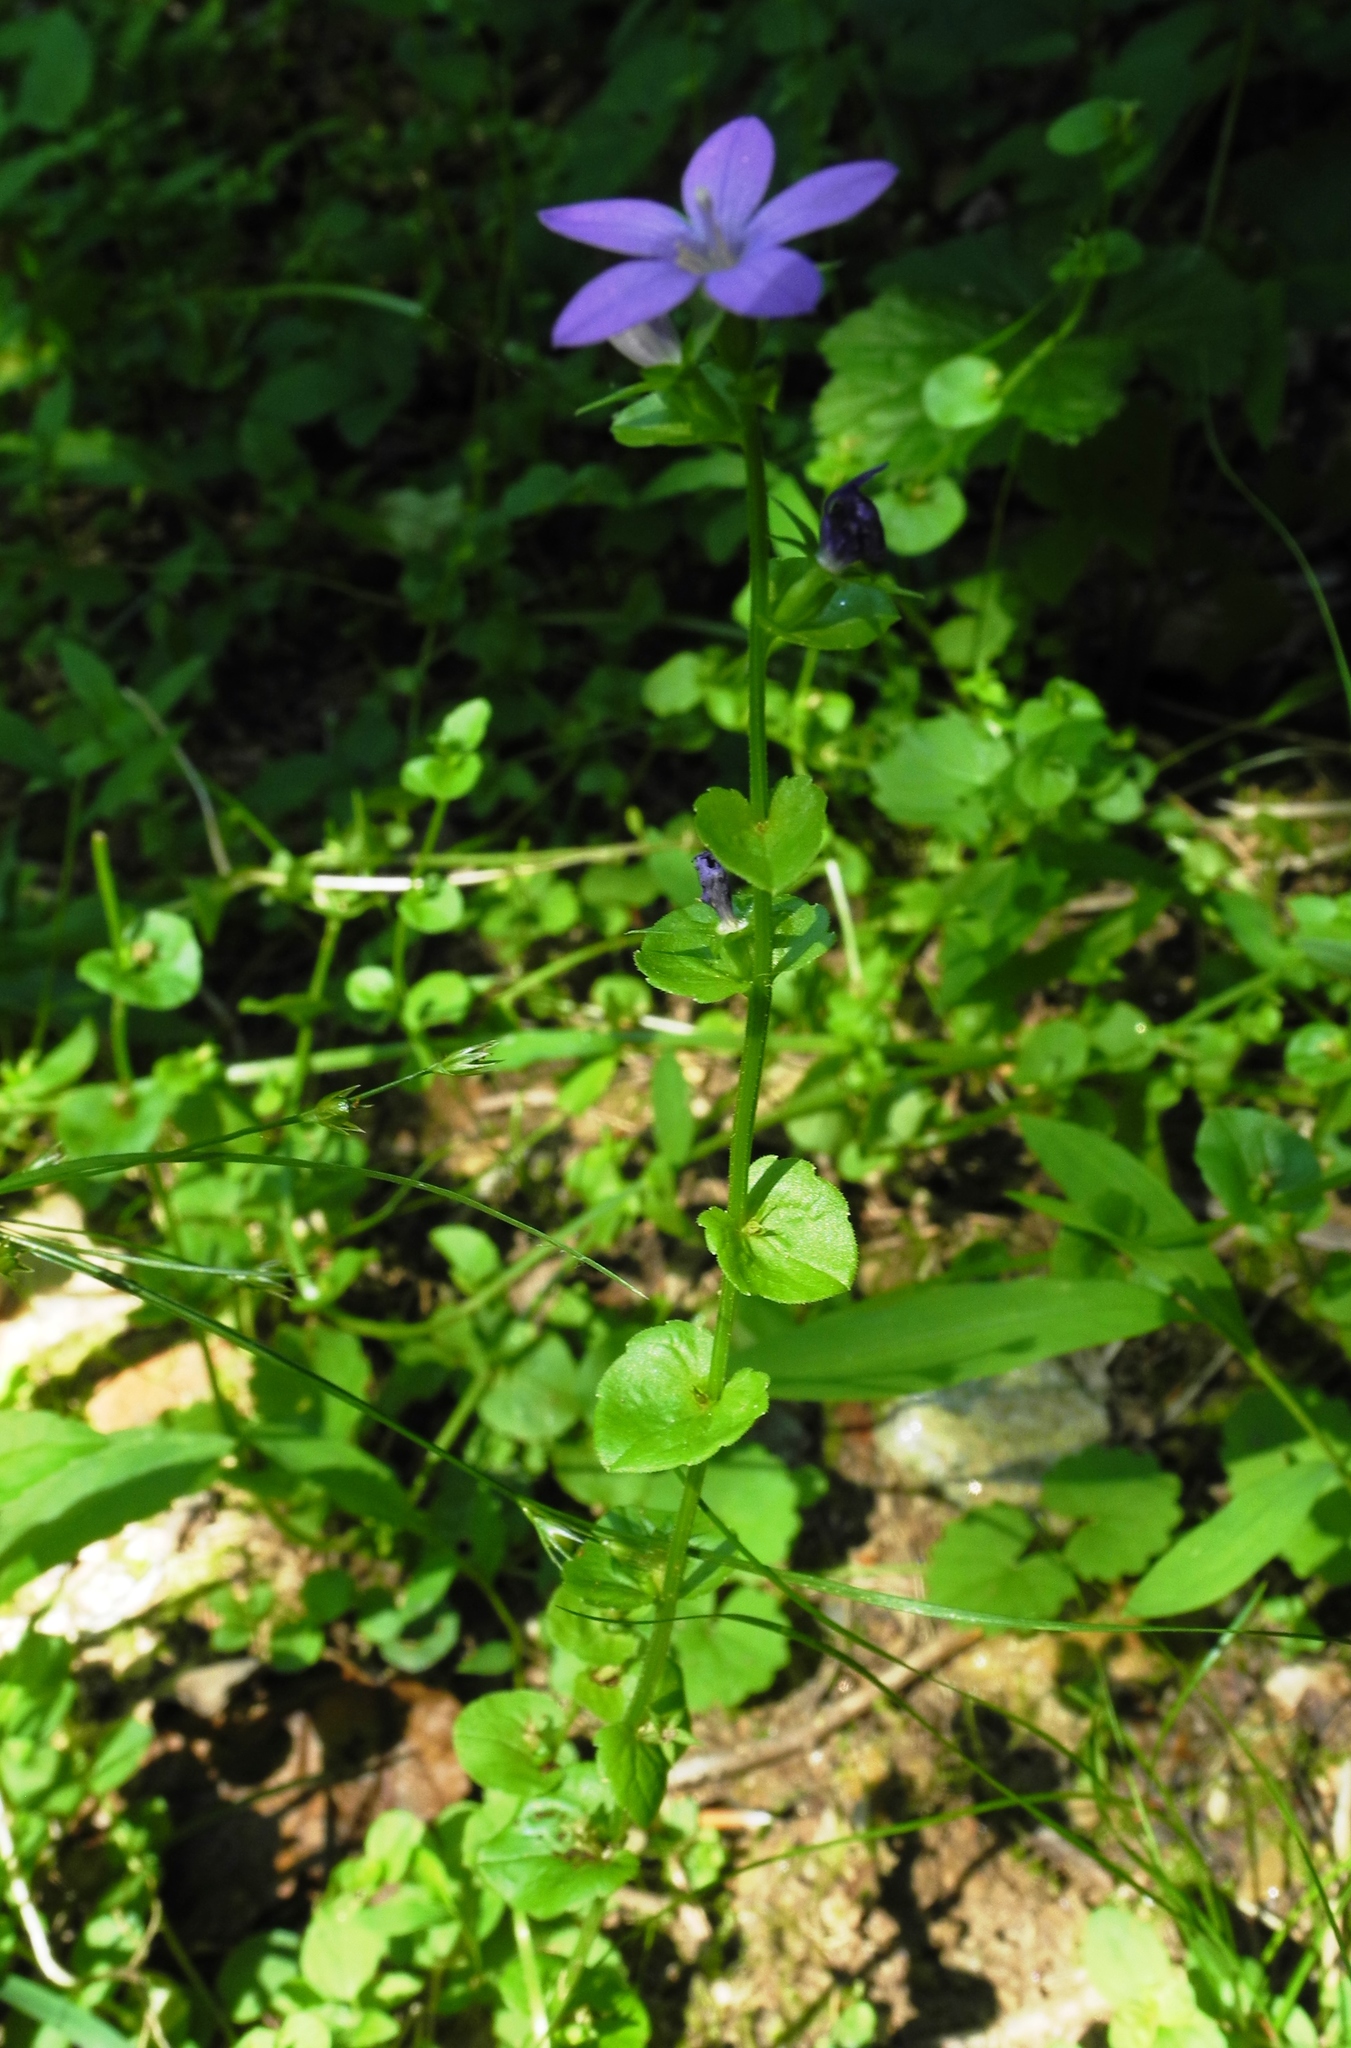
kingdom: Plantae
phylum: Tracheophyta
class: Magnoliopsida
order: Asterales
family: Campanulaceae
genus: Triodanis
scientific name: Triodanis perfoliata
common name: Clasping venus' looking-glass
